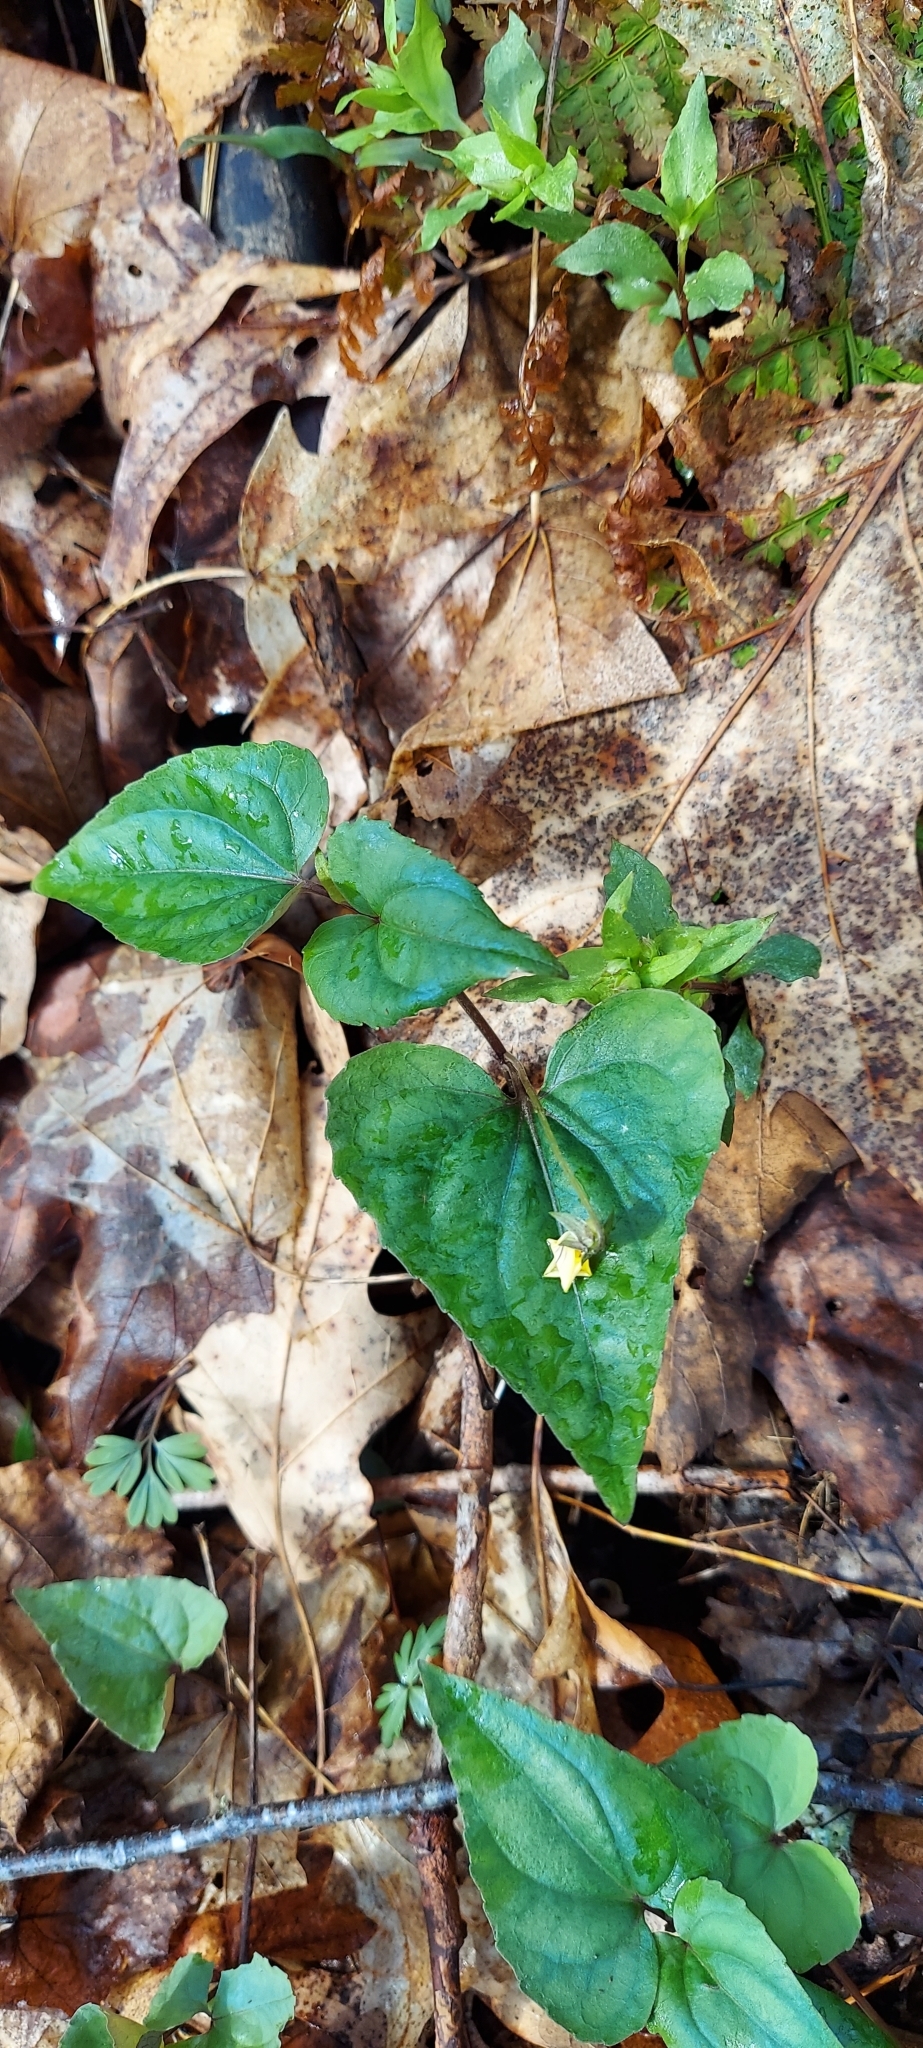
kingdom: Plantae
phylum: Tracheophyta
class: Magnoliopsida
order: Malpighiales
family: Violaceae
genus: Viola
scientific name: Viola hastata
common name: Spear-leaf violet
